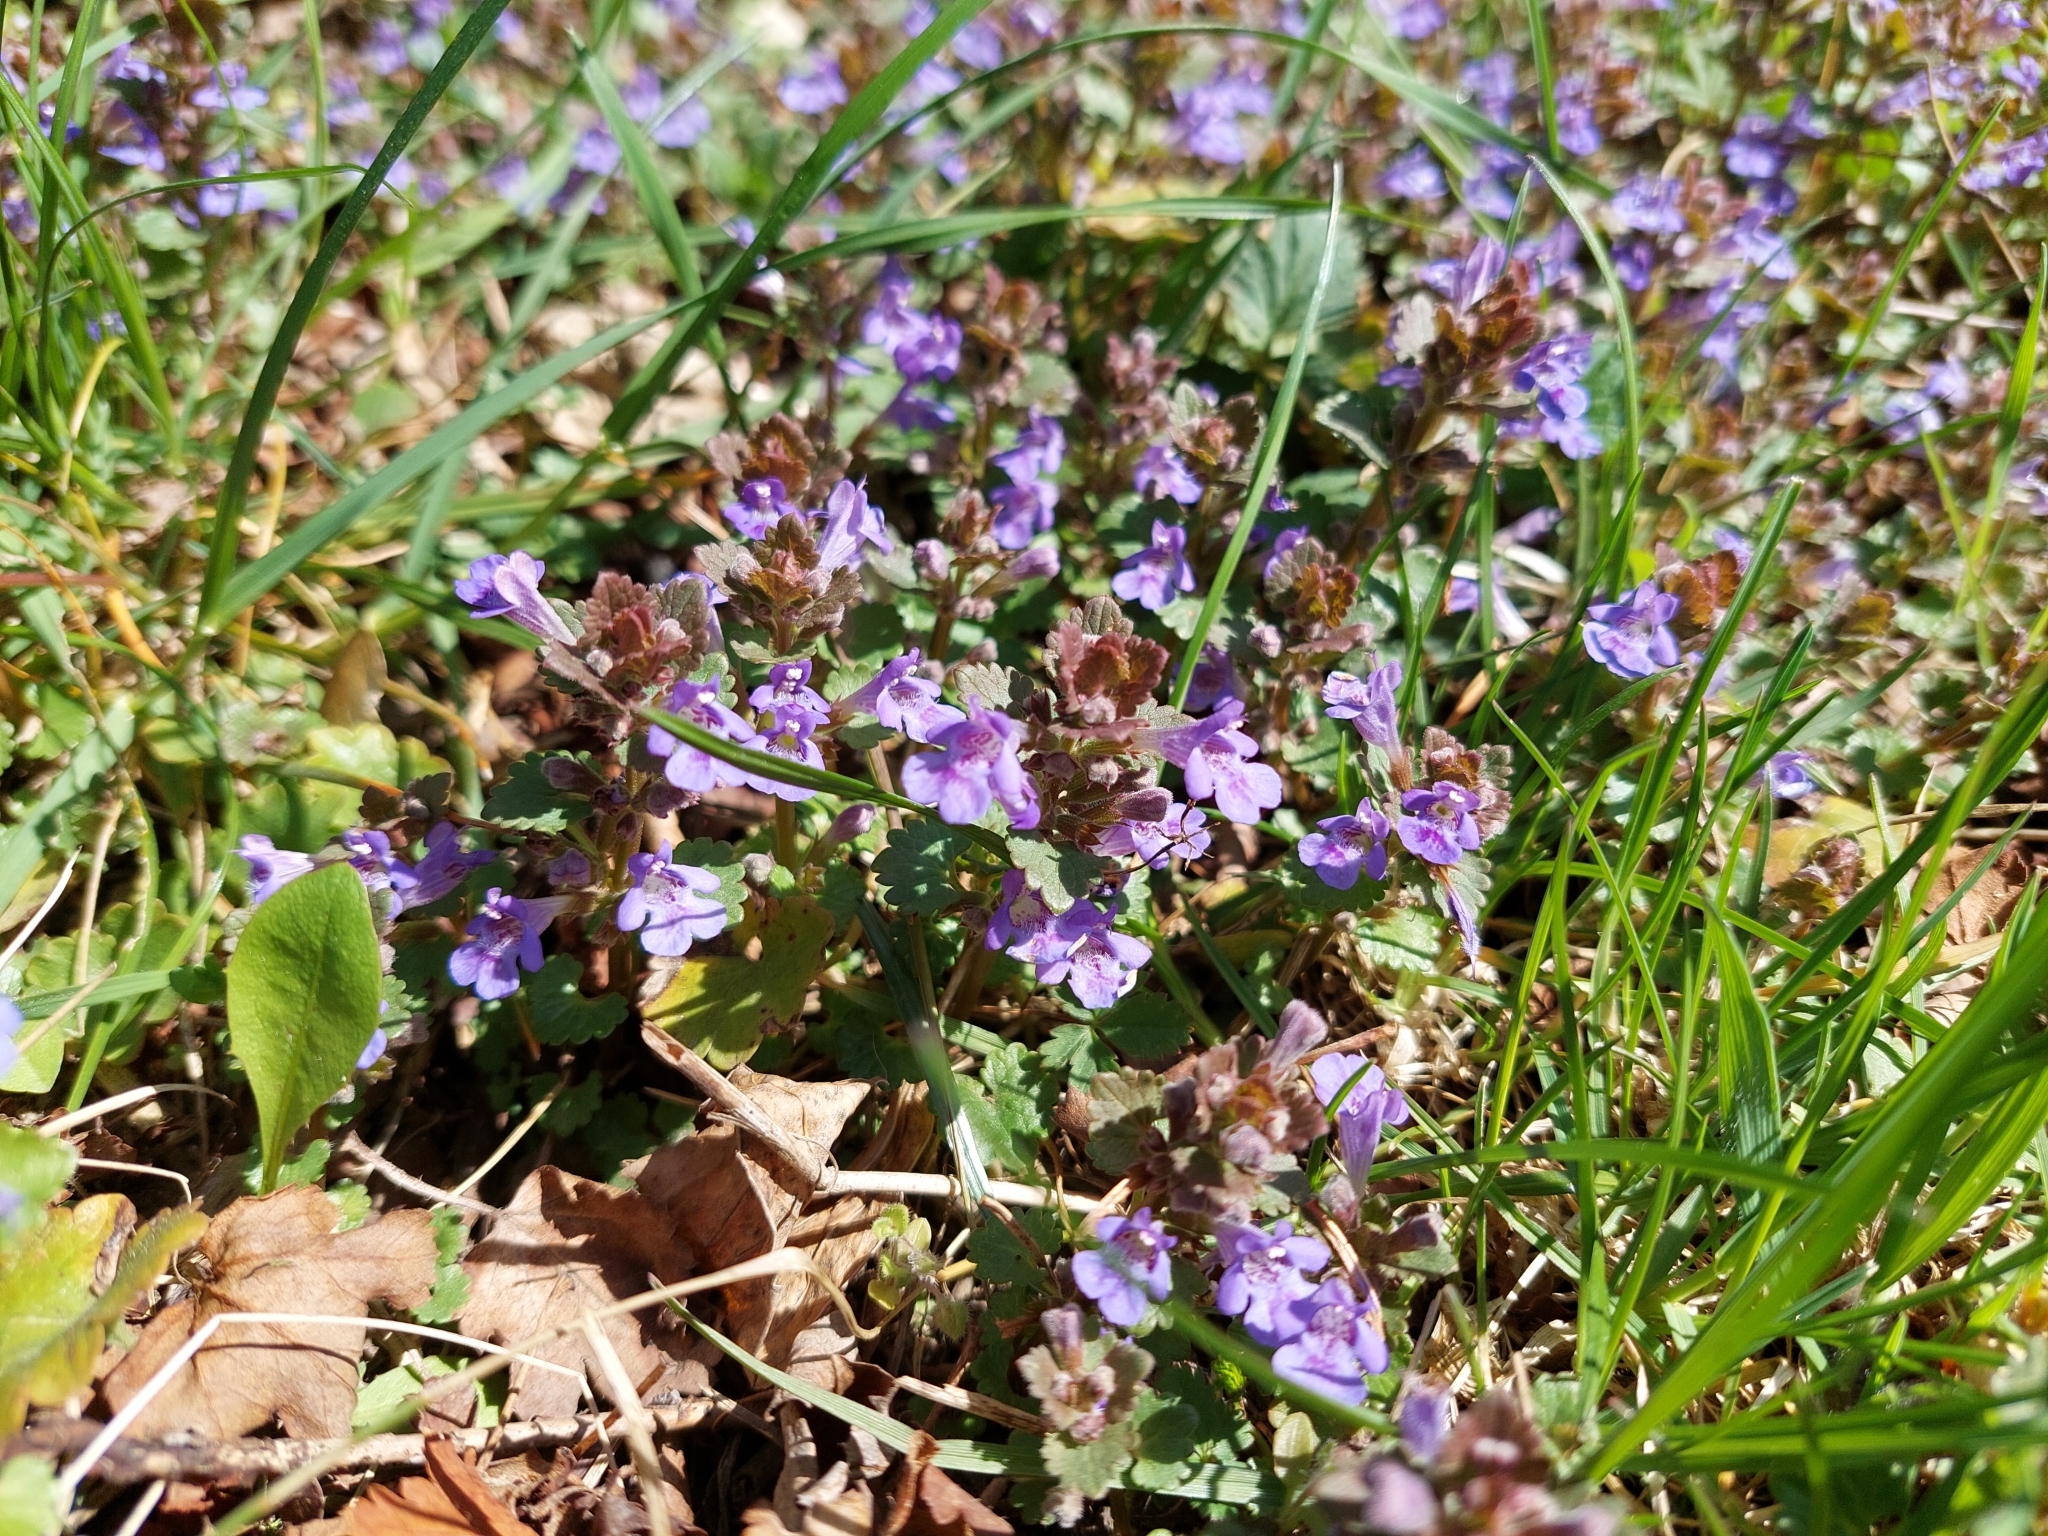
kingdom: Plantae
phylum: Tracheophyta
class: Magnoliopsida
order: Lamiales
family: Lamiaceae
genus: Glechoma
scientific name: Glechoma hederacea
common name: Ground ivy
